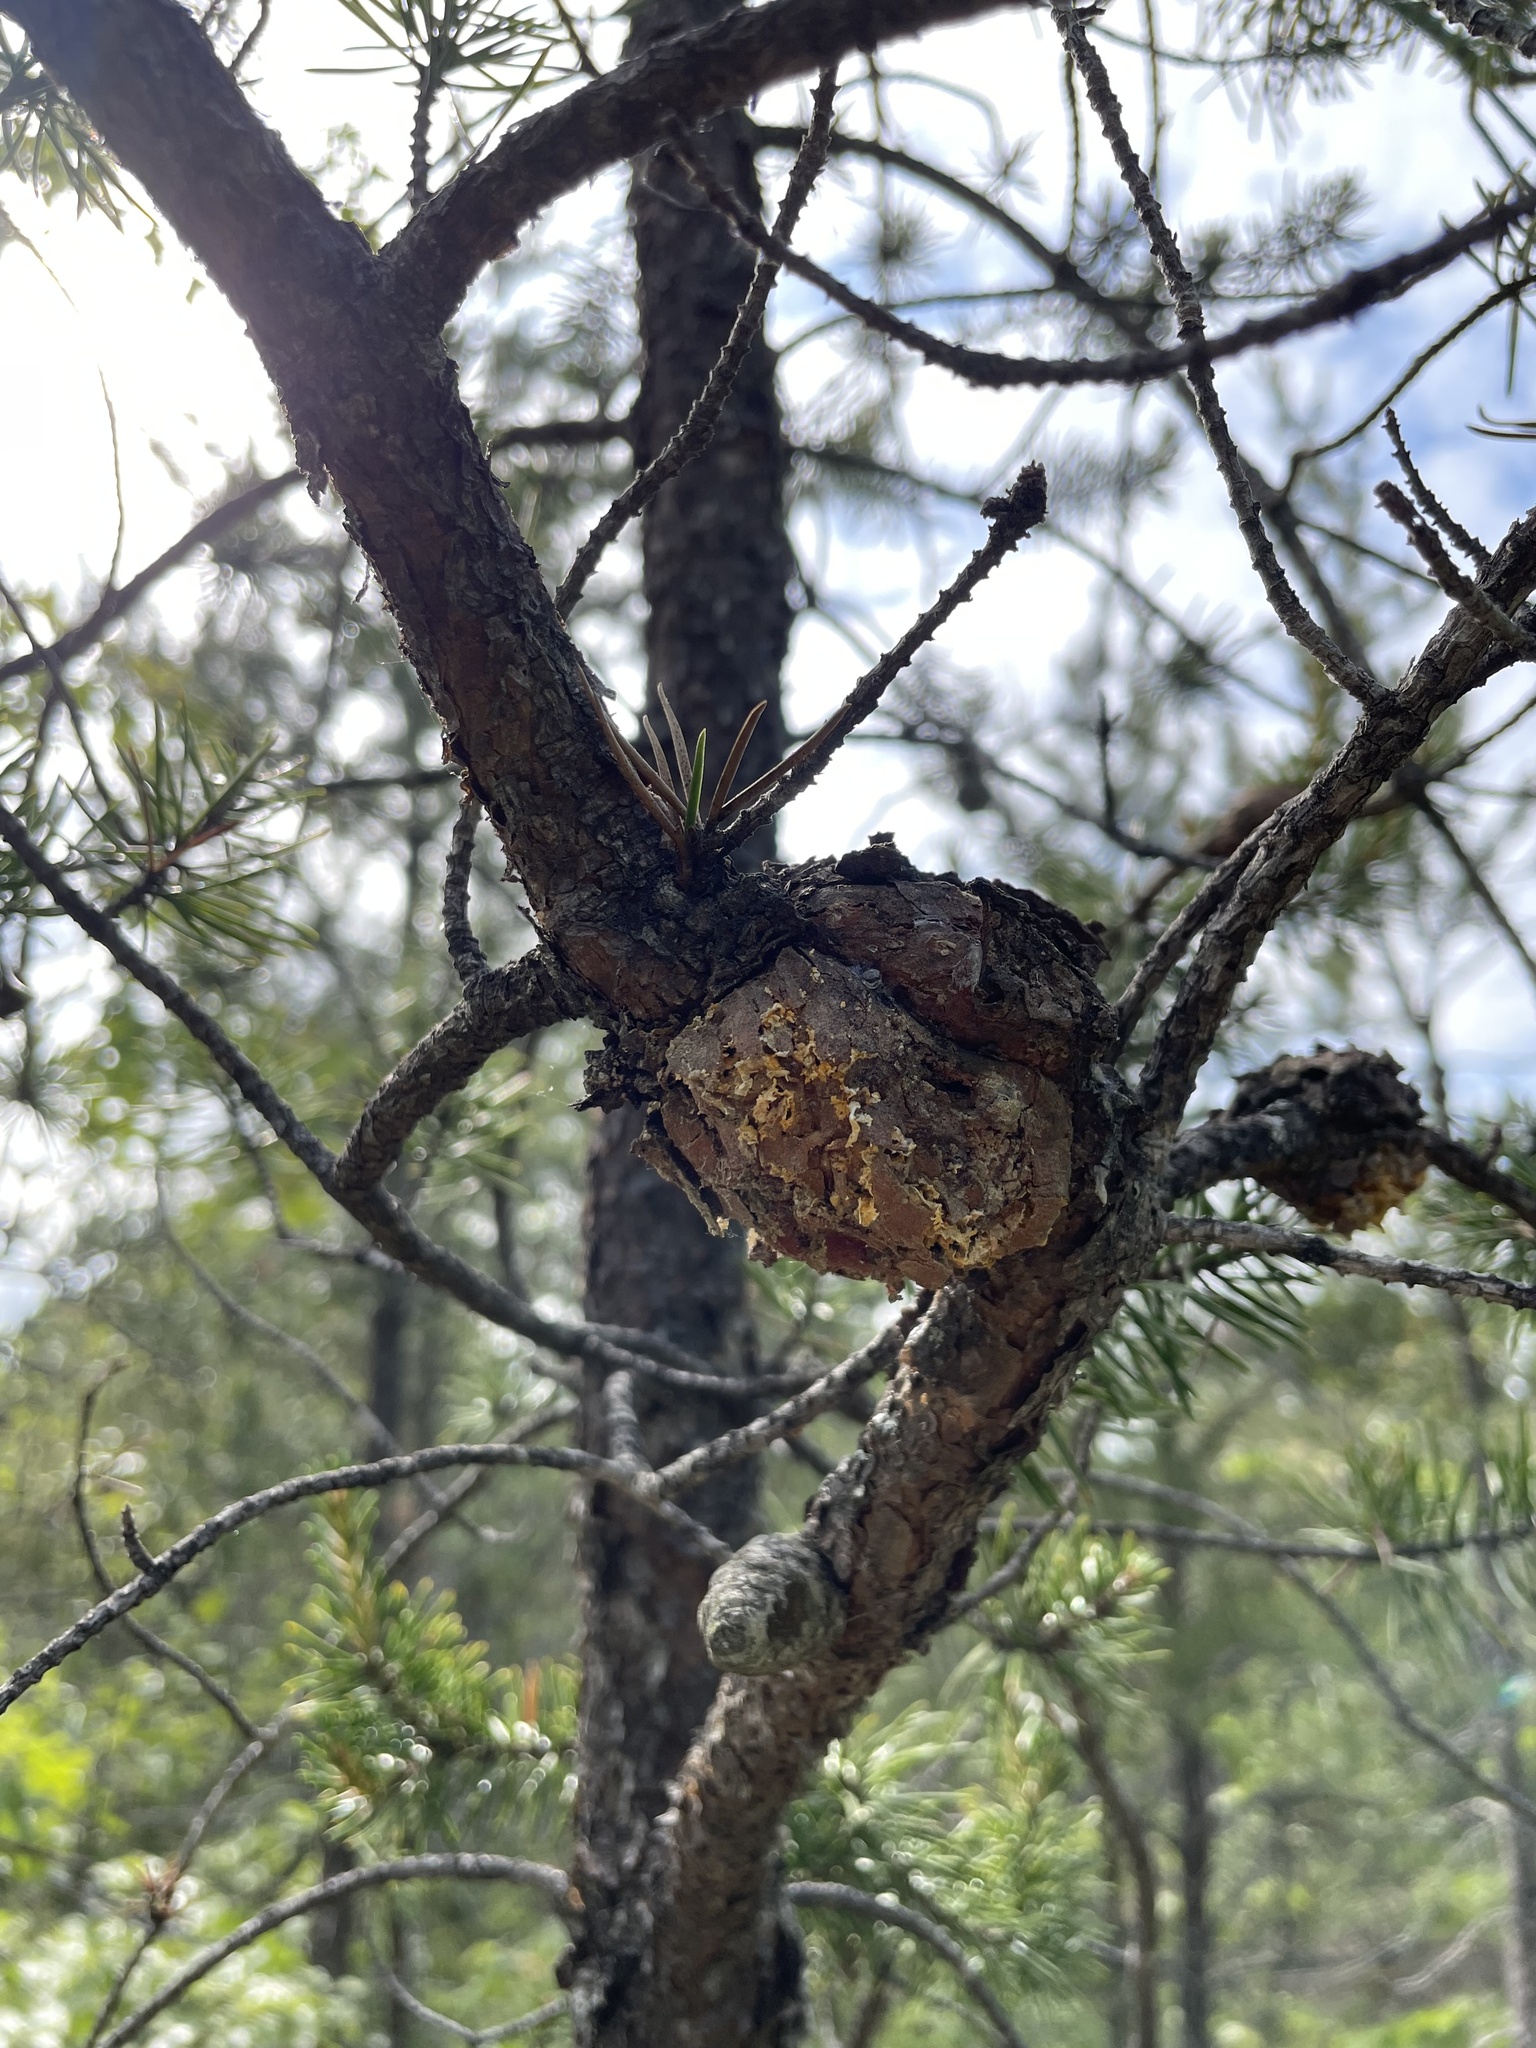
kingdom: Fungi
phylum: Basidiomycota
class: Pucciniomycetes
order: Pucciniales
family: Cronartiaceae
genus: Cronartium
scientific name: Cronartium quercuum
